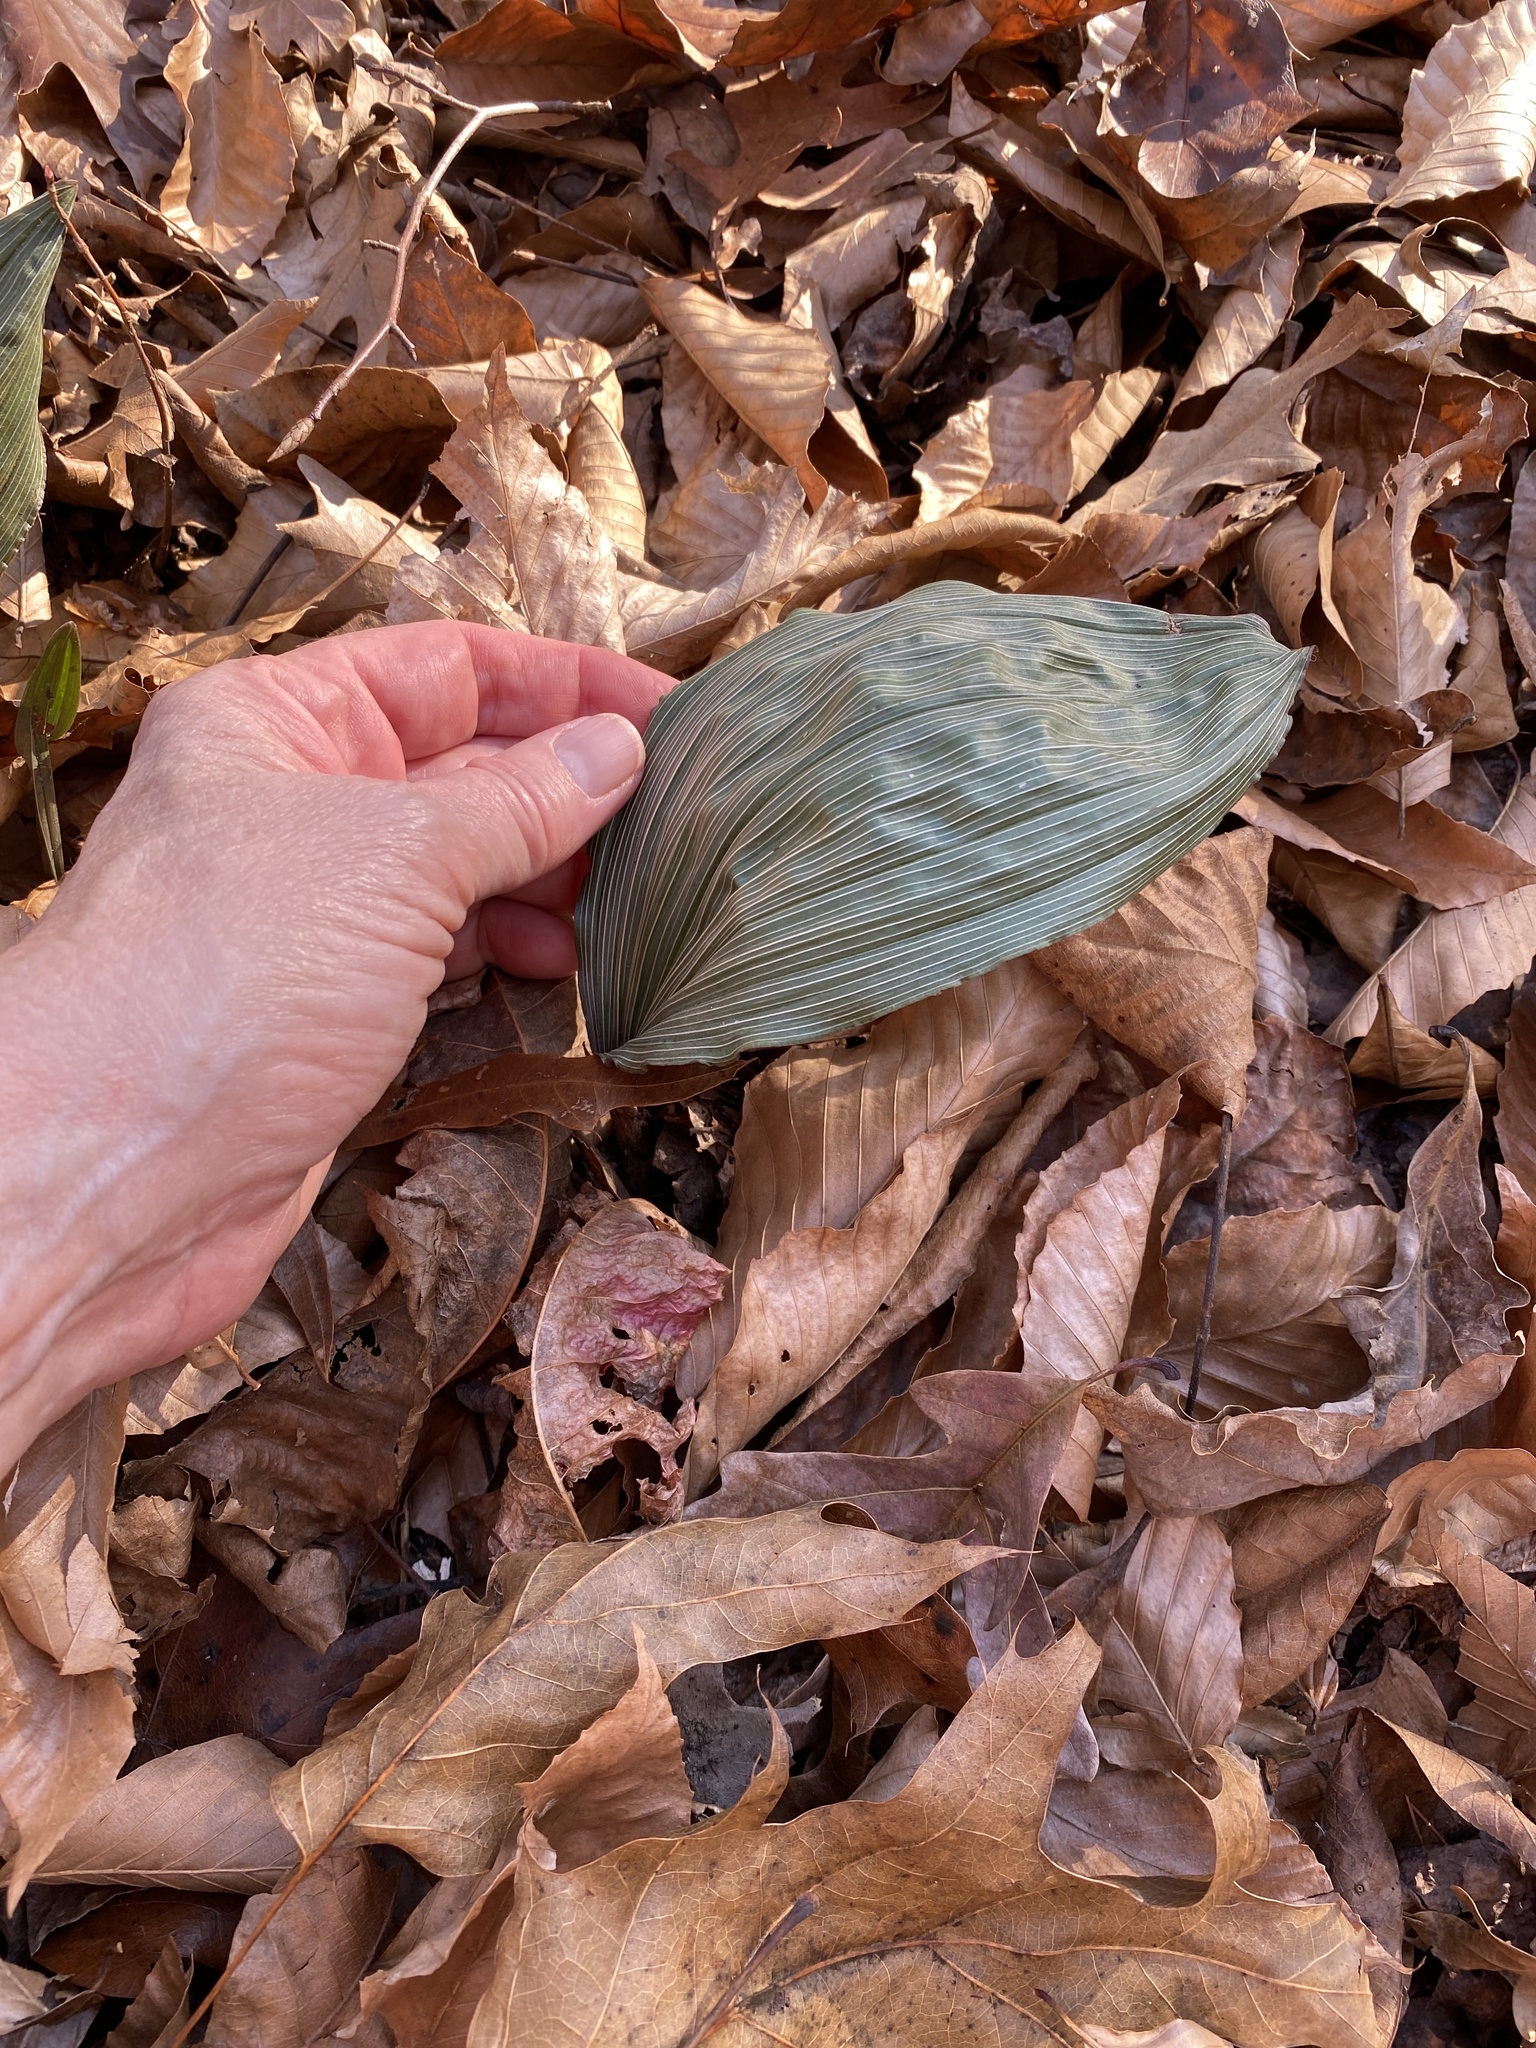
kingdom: Plantae
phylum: Tracheophyta
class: Liliopsida
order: Asparagales
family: Orchidaceae
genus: Aplectrum
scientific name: Aplectrum hyemale
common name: Adam-and-eve
